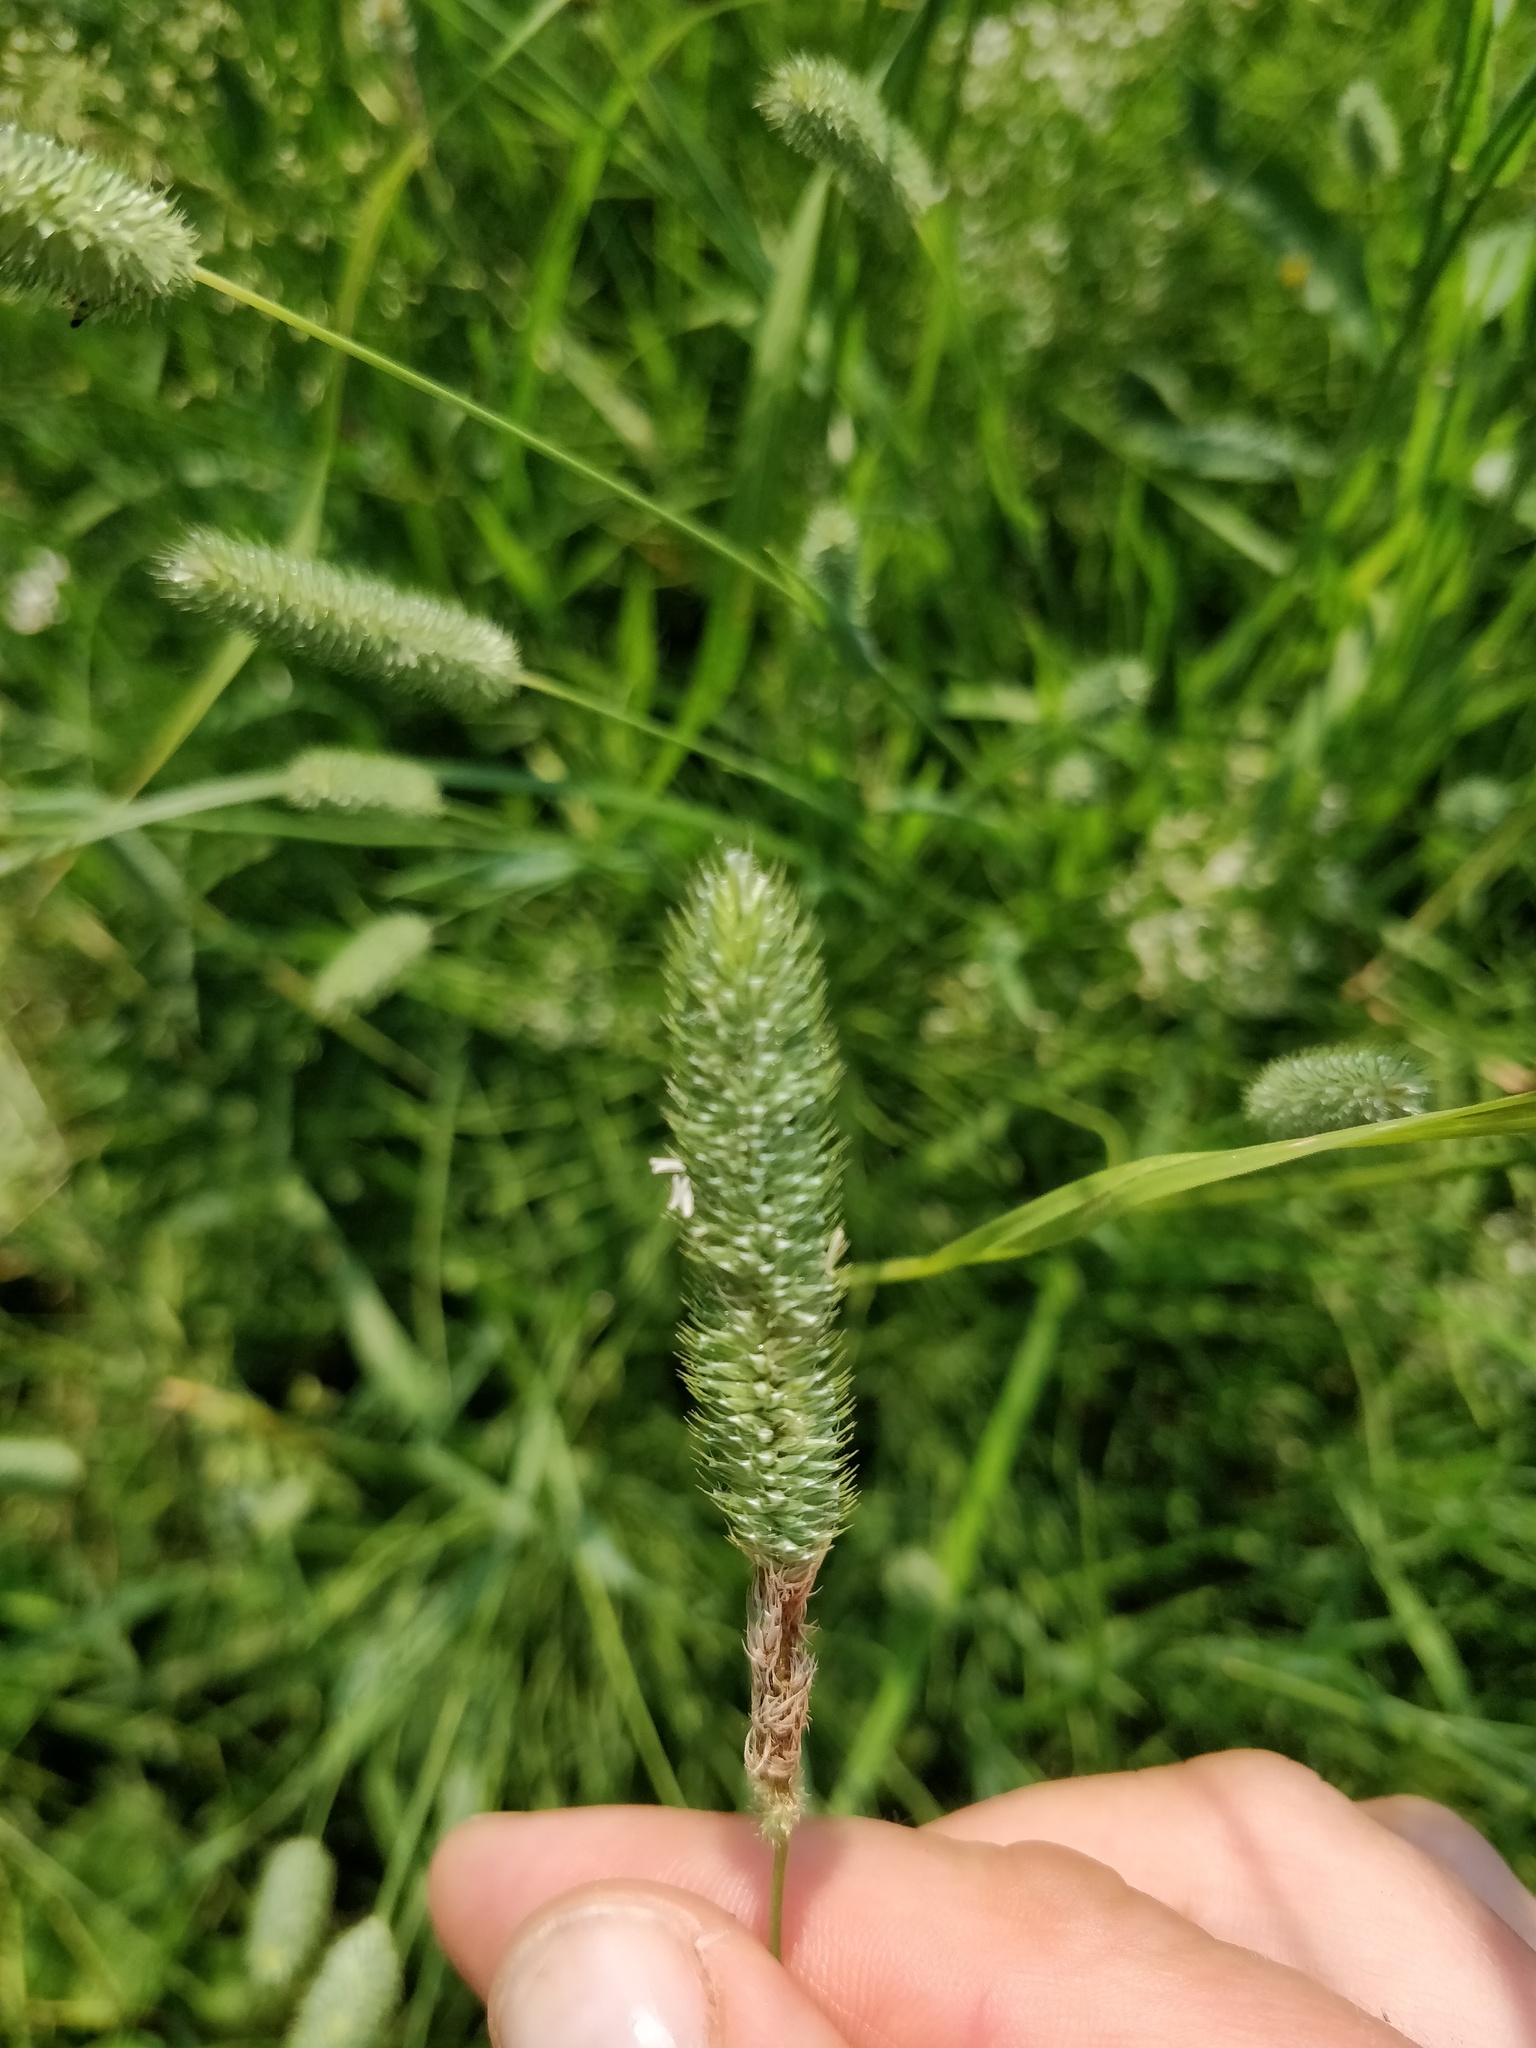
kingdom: Plantae
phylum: Tracheophyta
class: Liliopsida
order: Poales
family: Poaceae
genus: Phleum
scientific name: Phleum pratense
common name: Timothy grass
